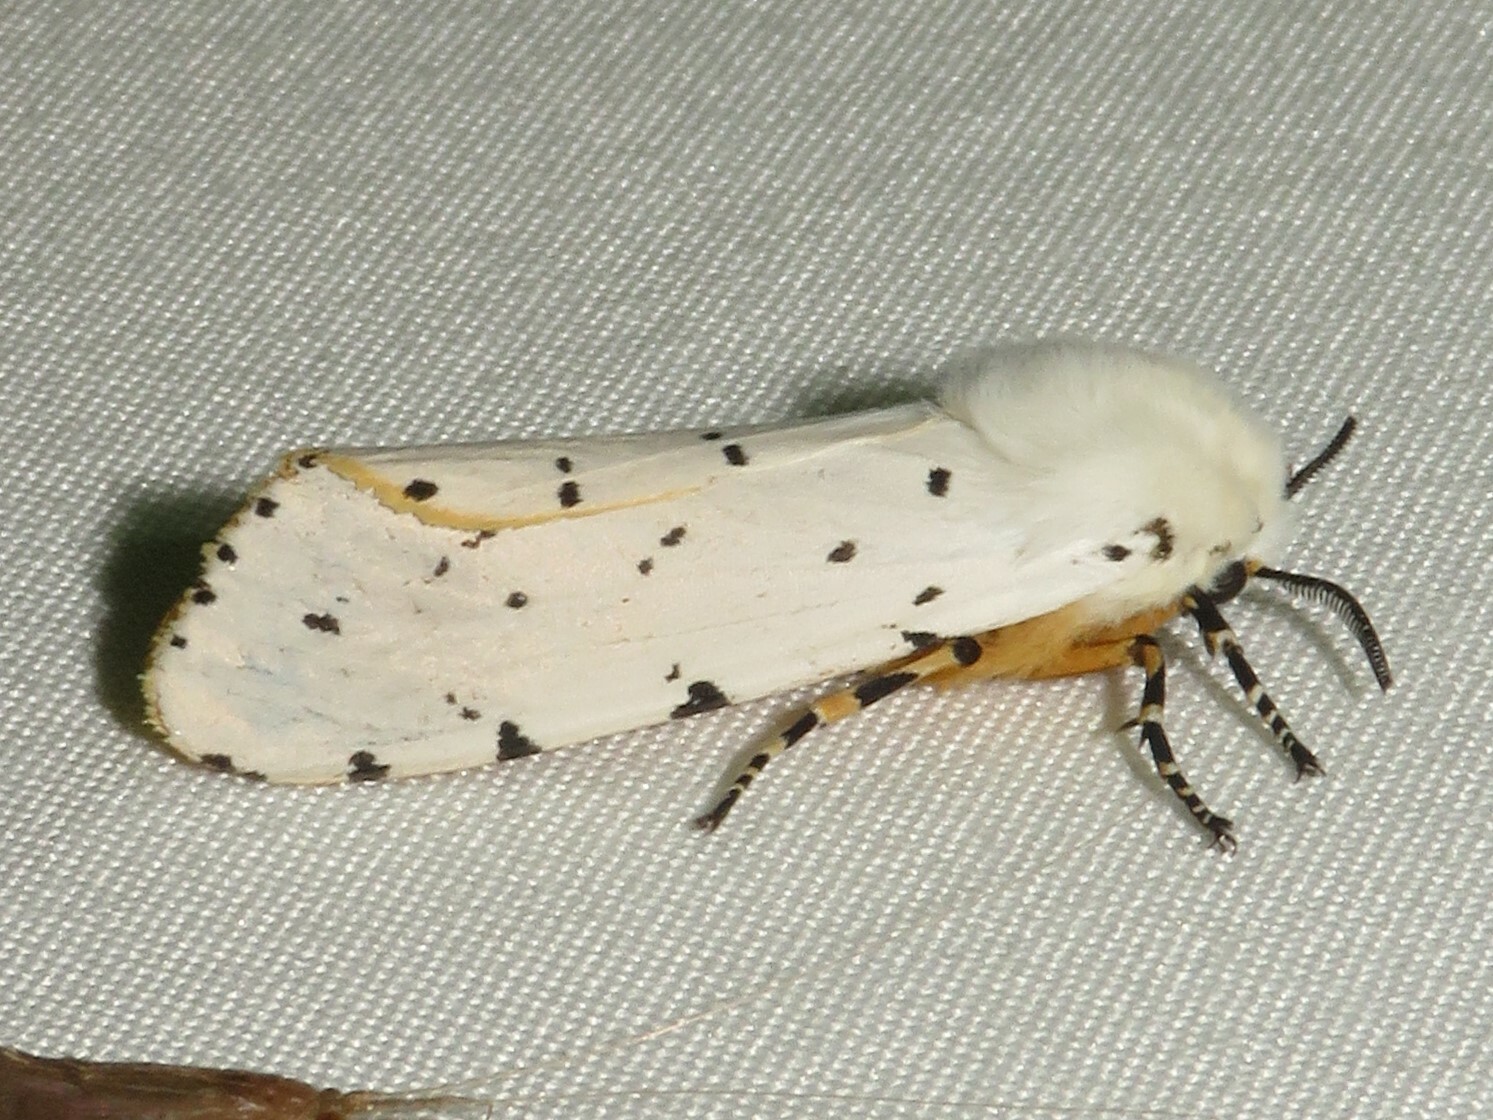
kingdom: Animalia
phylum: Arthropoda
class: Insecta
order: Lepidoptera
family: Erebidae
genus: Estigmene
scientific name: Estigmene acrea
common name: Salt marsh moth
